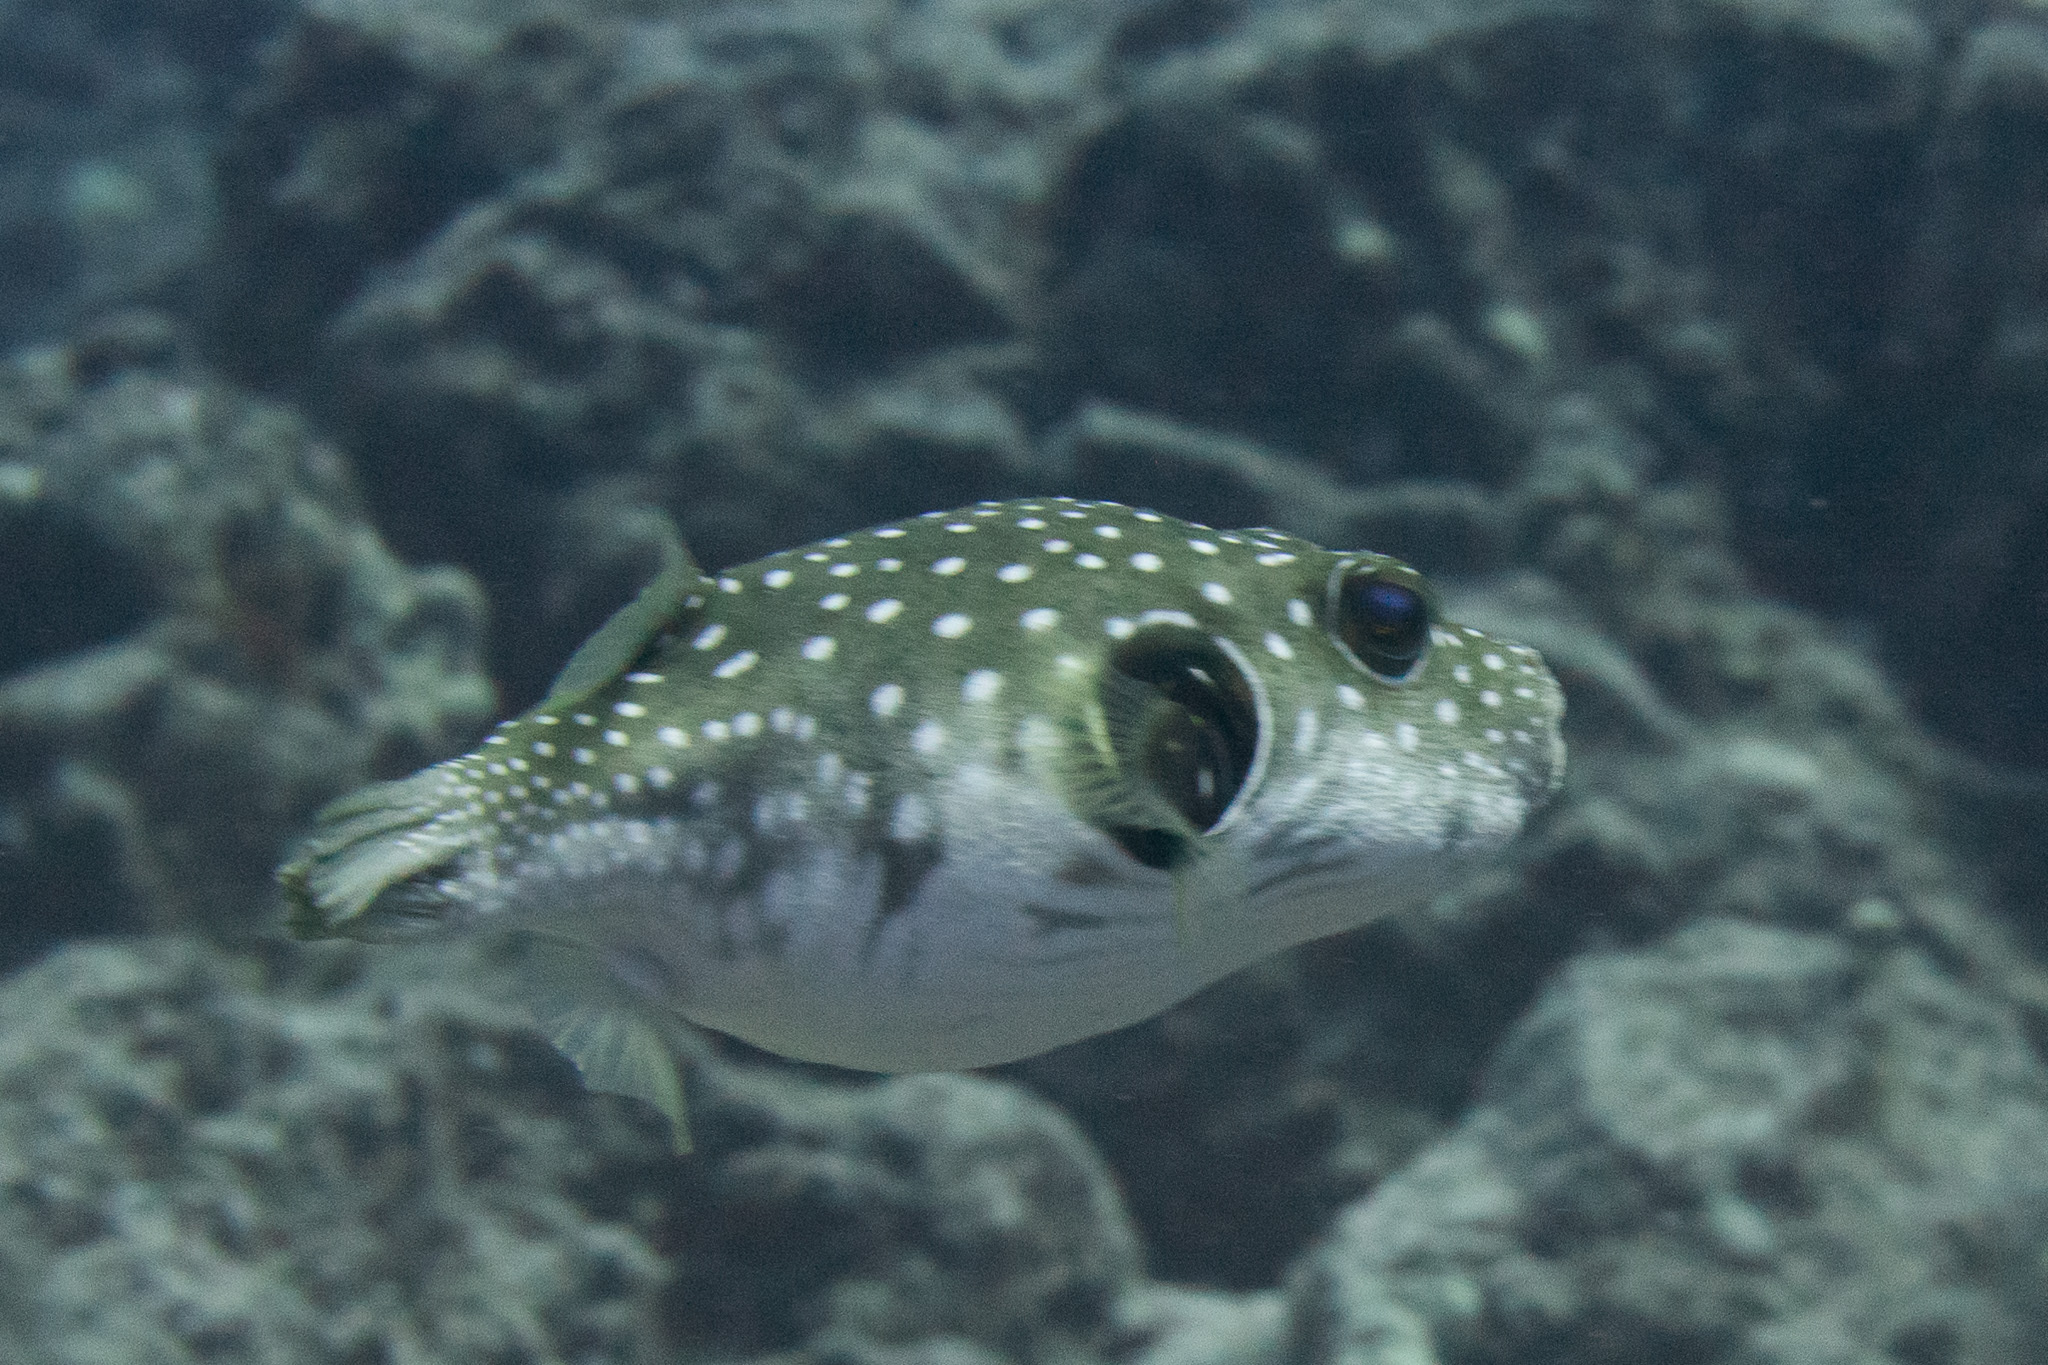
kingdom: Animalia
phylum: Chordata
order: Tetraodontiformes
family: Tetraodontidae
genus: Arothron
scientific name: Arothron hispidus
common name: Stripebelly puffer
